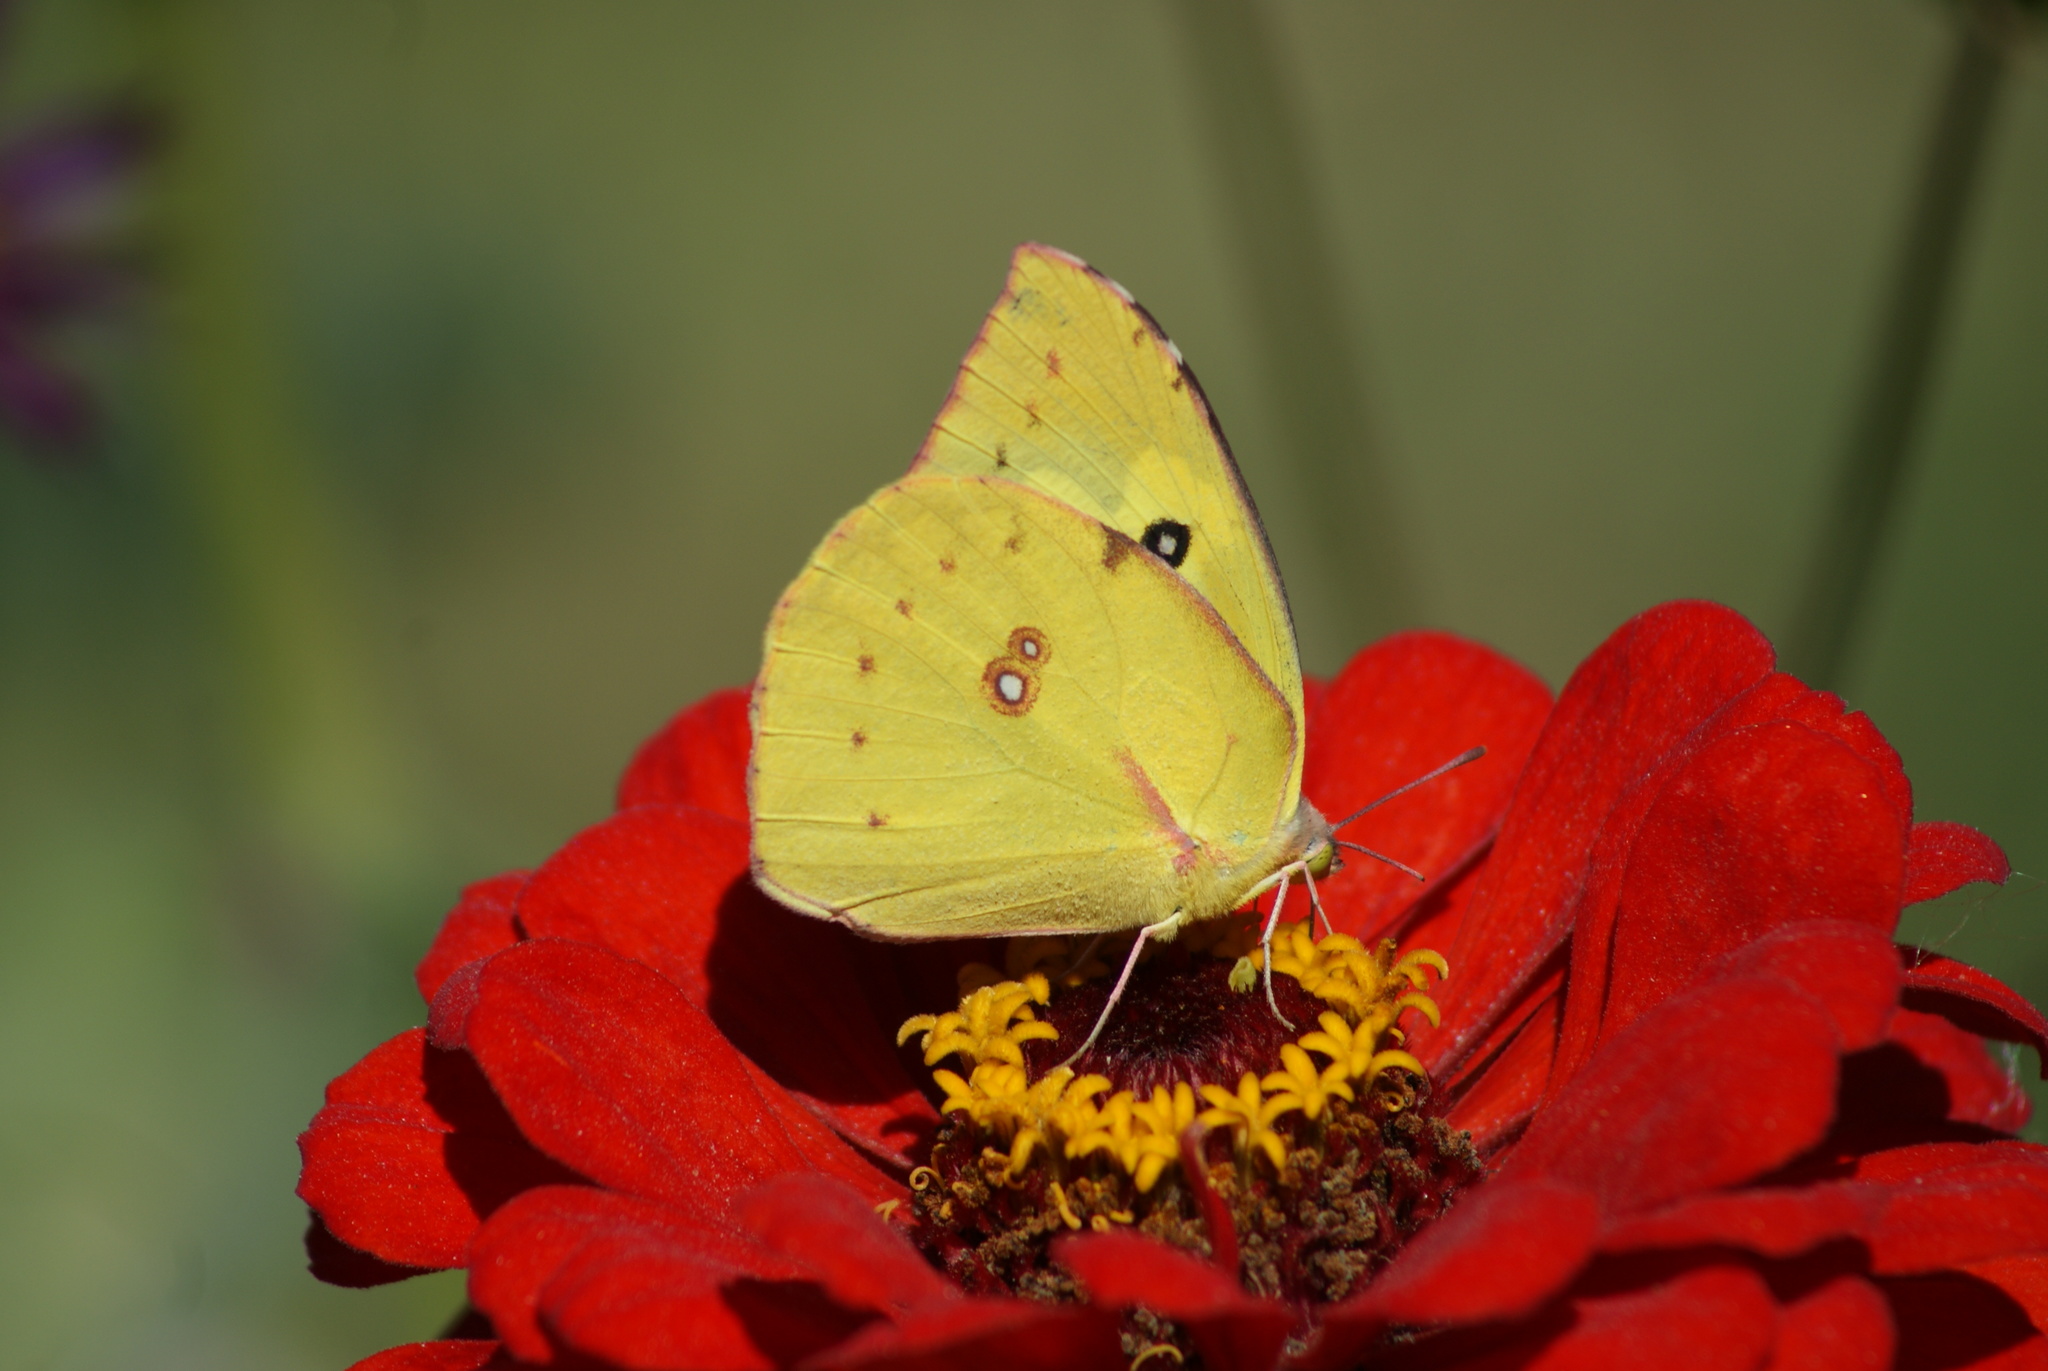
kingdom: Animalia
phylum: Arthropoda
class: Insecta
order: Lepidoptera
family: Pieridae
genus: Zerene
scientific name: Zerene cesonia
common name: Southern dogface
